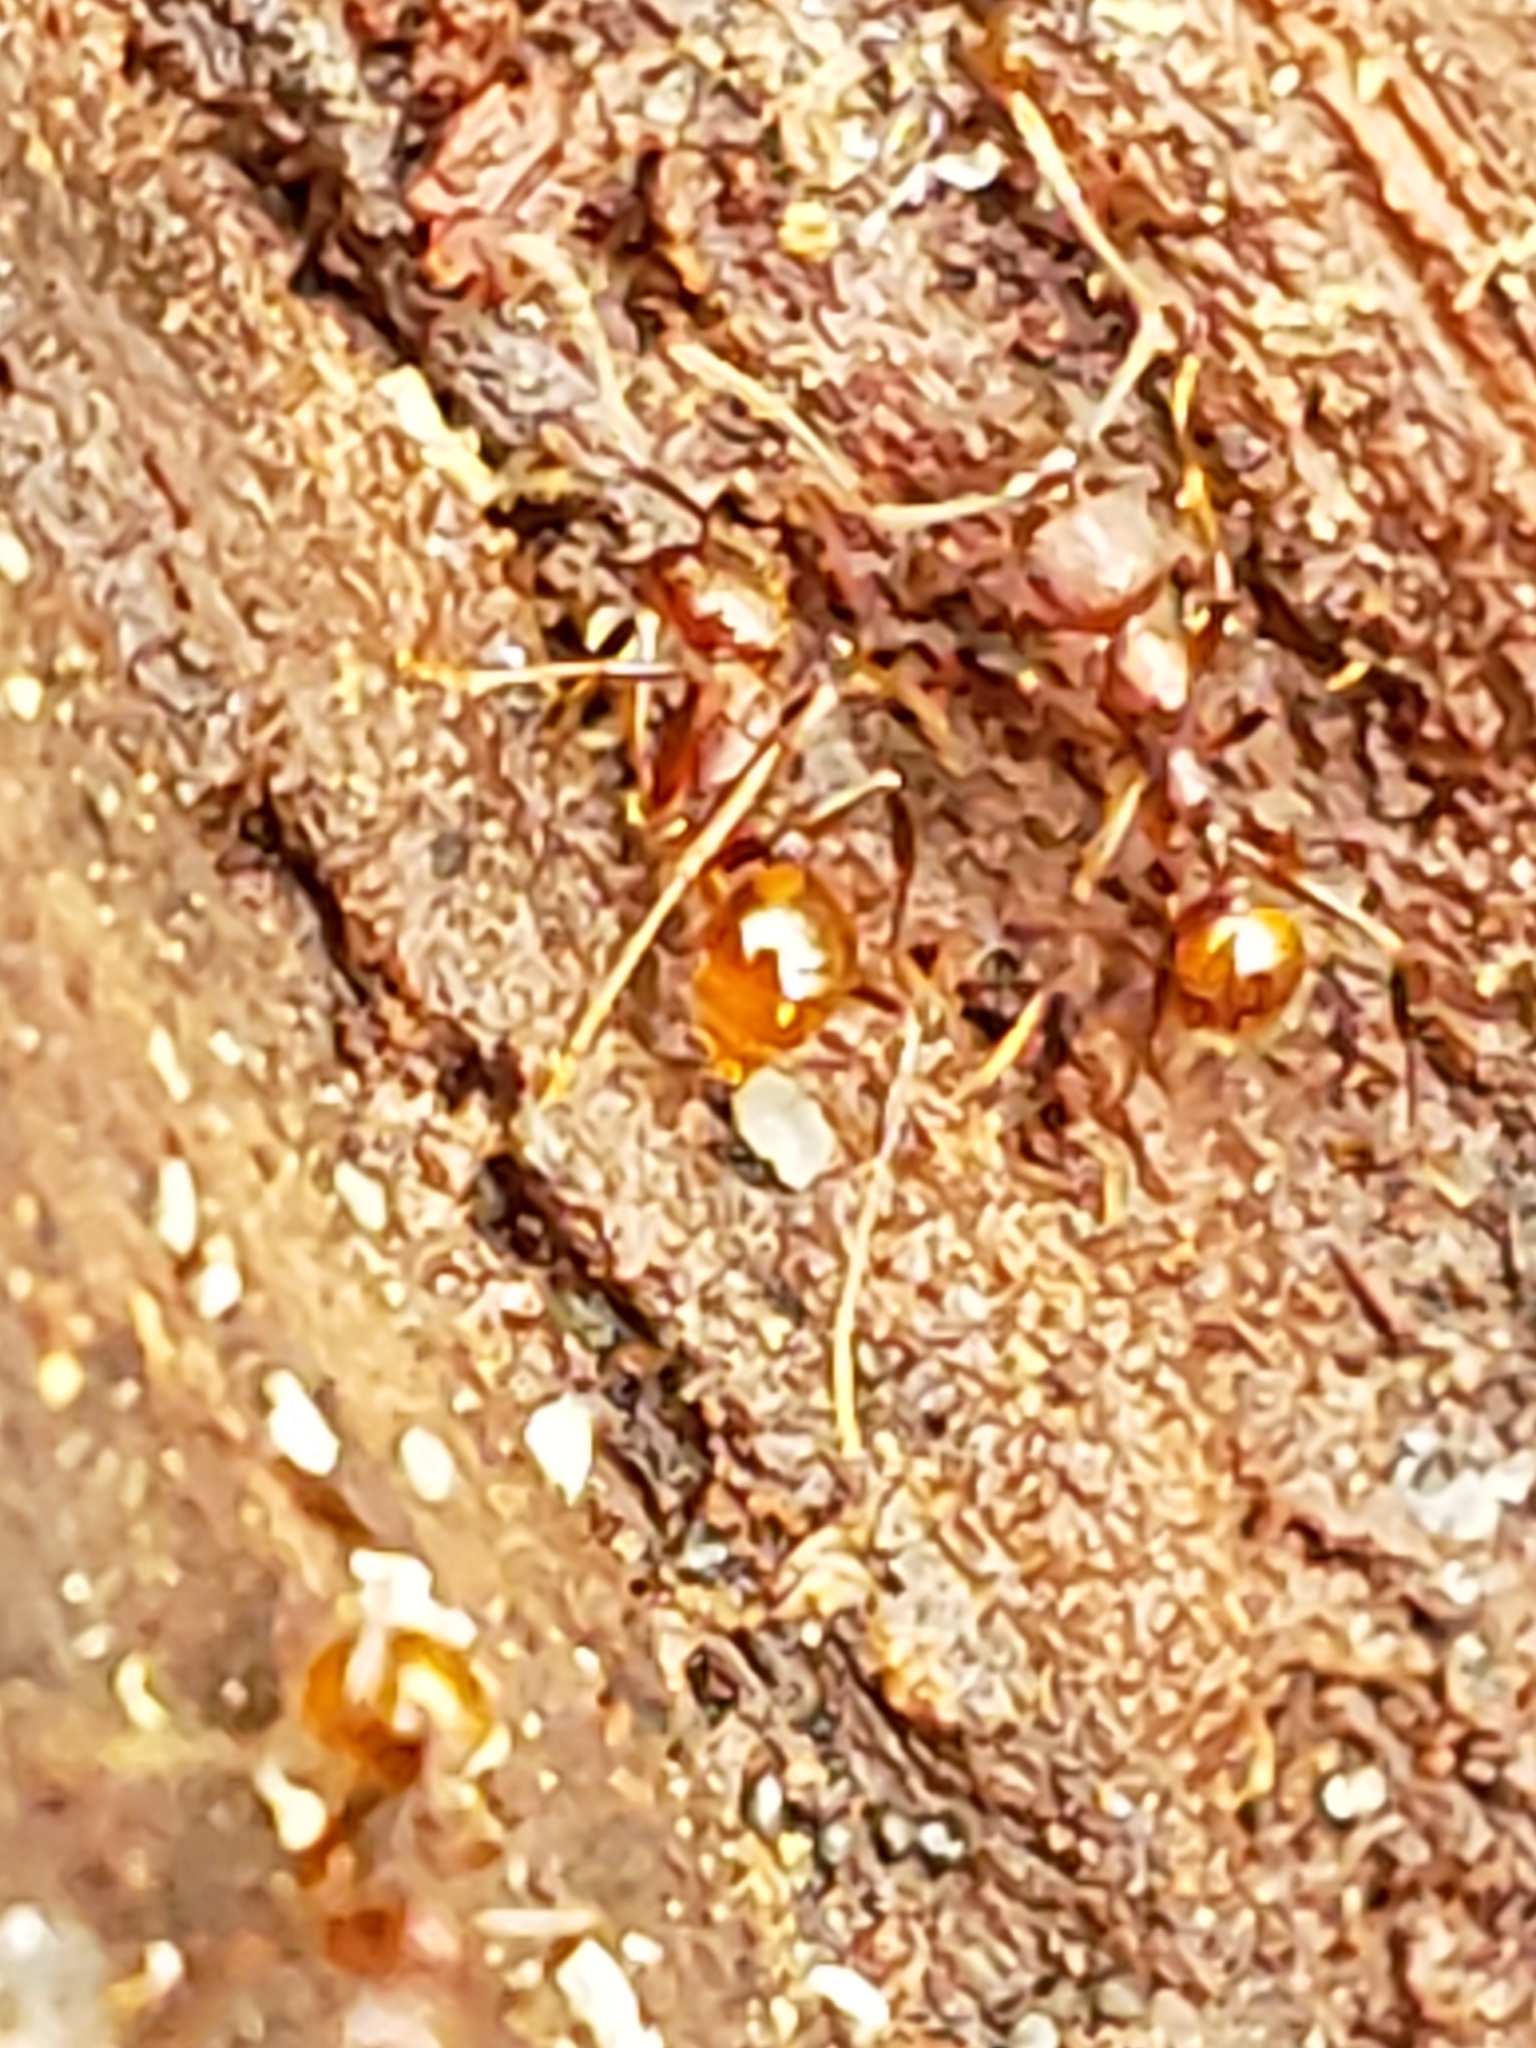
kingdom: Animalia
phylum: Arthropoda
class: Insecta
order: Hymenoptera
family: Formicidae
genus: Aphaenogaster
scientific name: Aphaenogaster fulva
